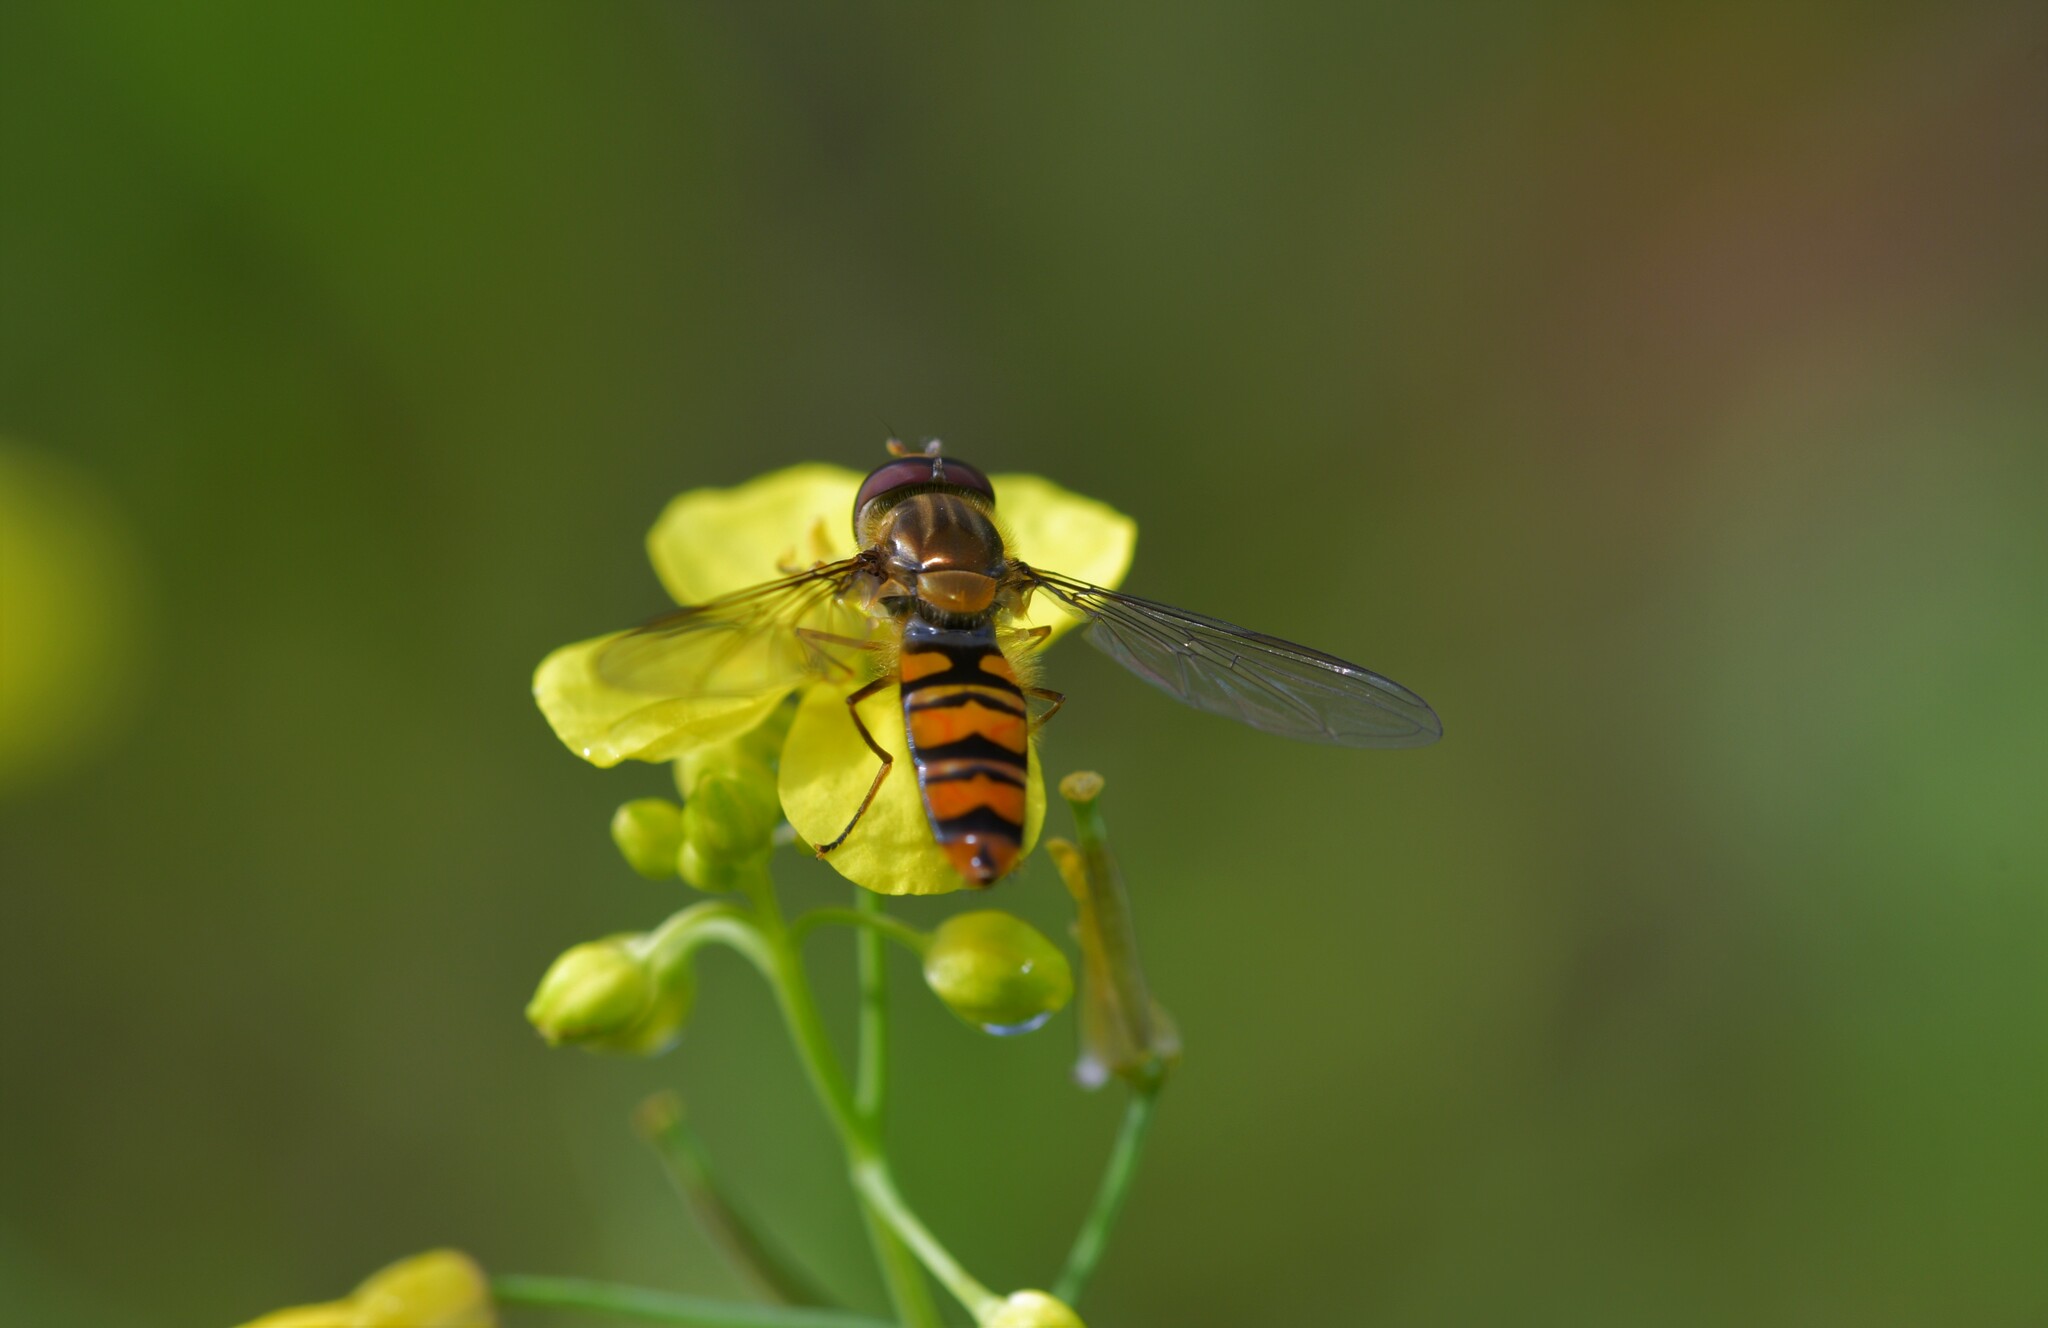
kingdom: Animalia
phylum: Arthropoda
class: Insecta
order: Diptera
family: Syrphidae
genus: Episyrphus
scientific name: Episyrphus balteatus
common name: Marmalade hoverfly
